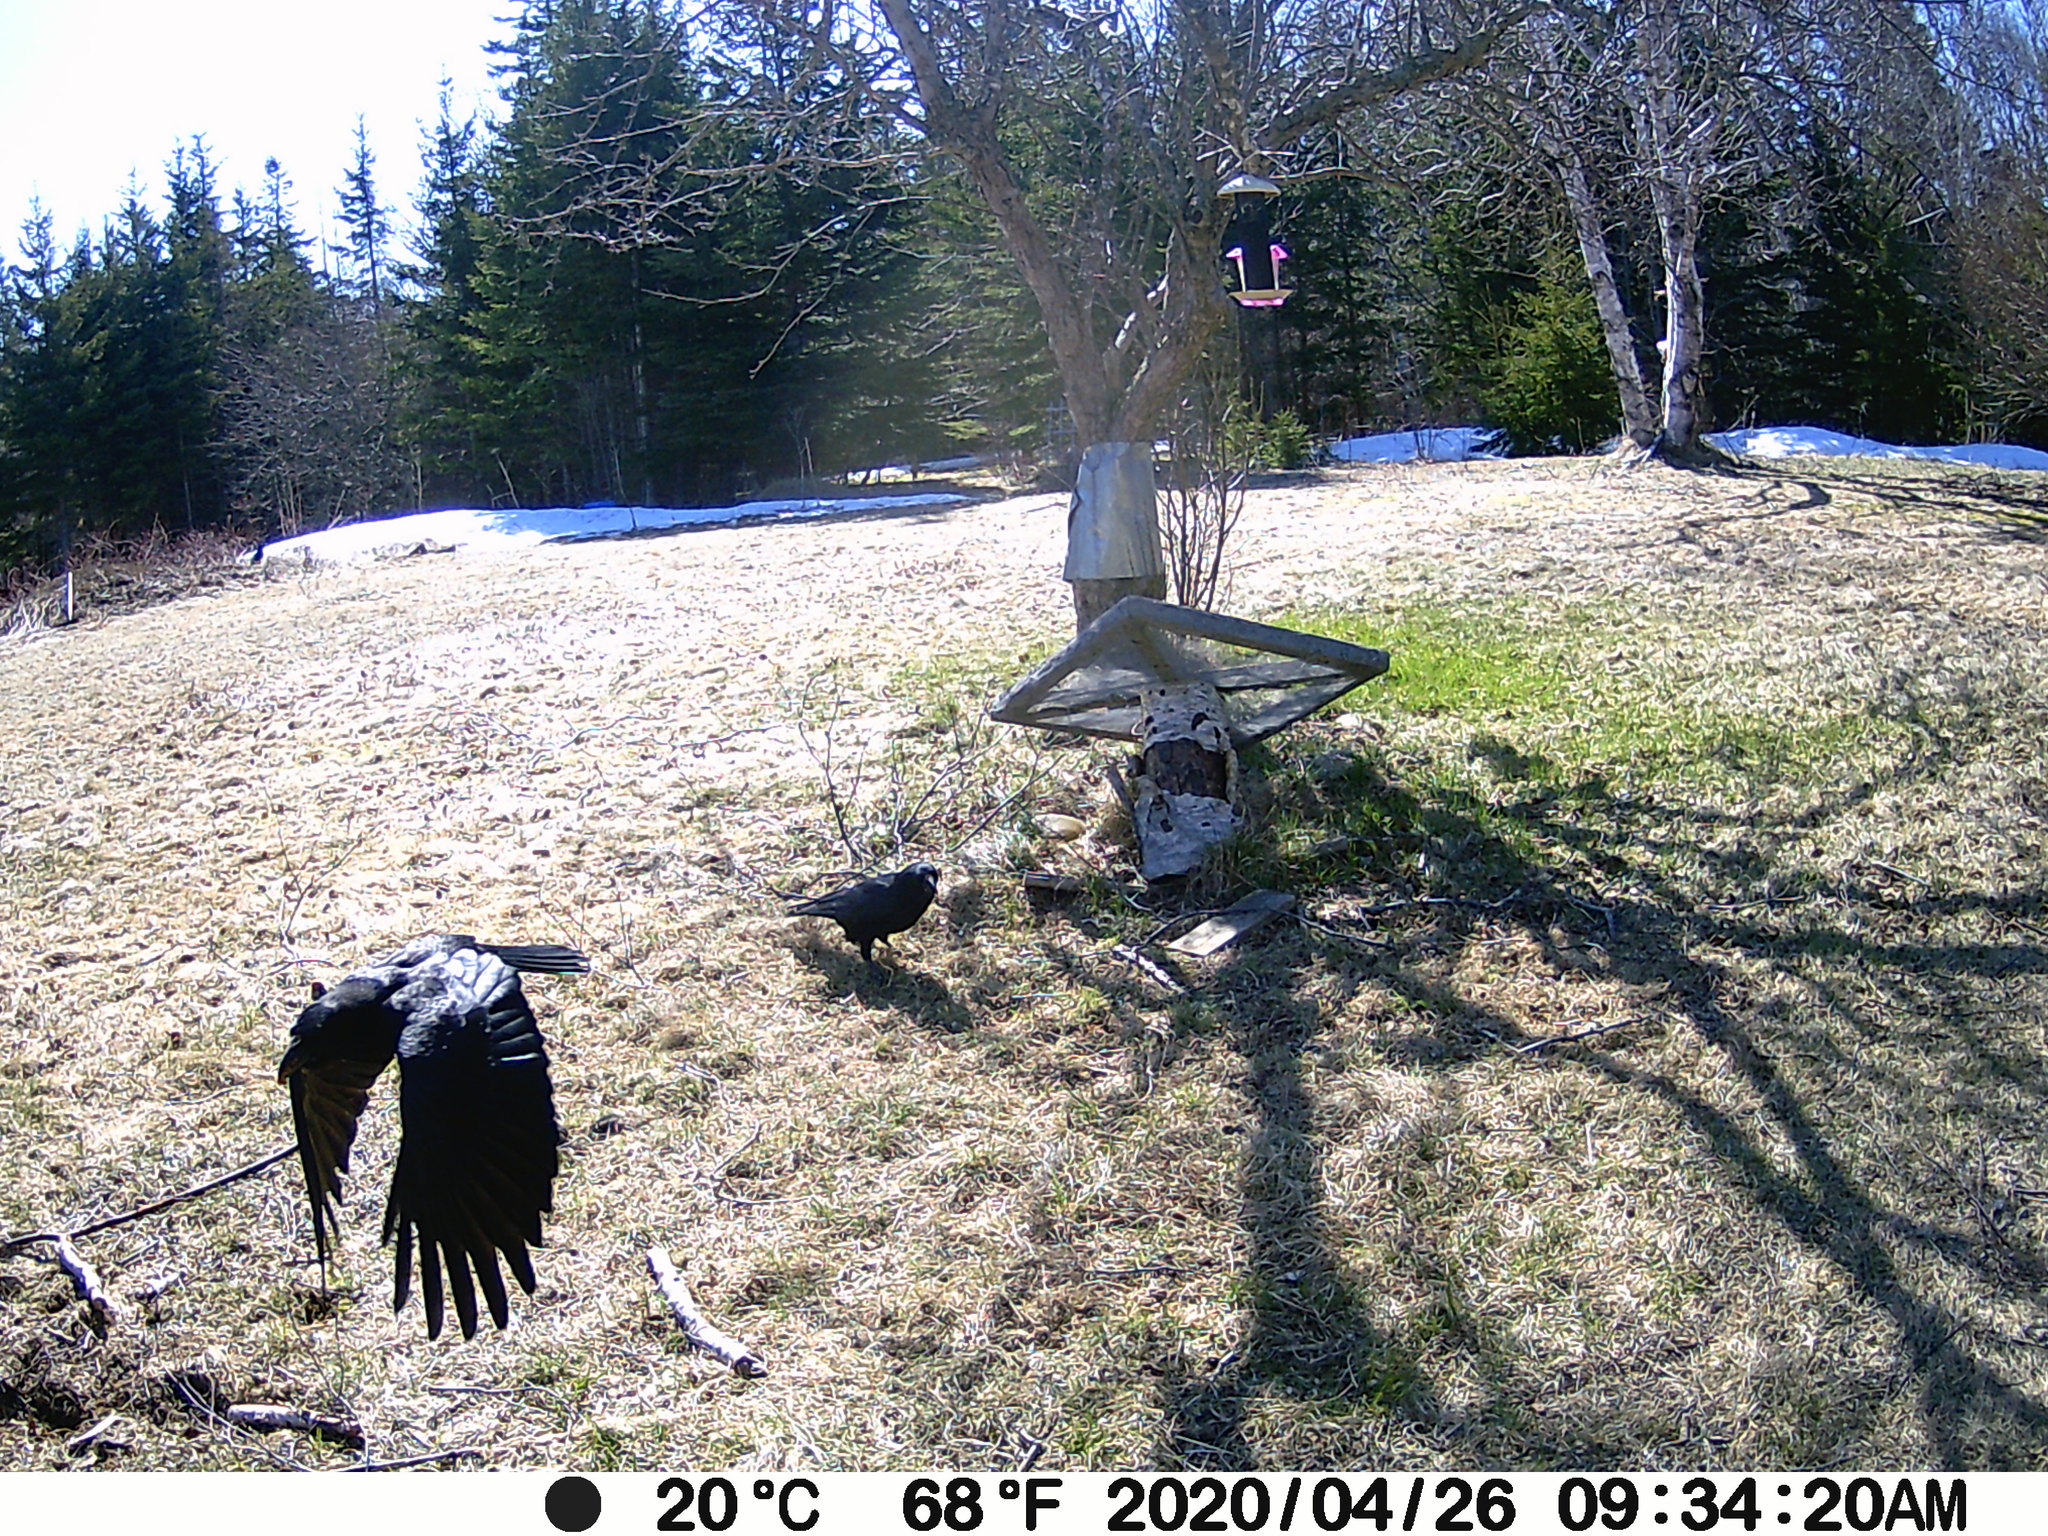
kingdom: Animalia
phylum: Chordata
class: Aves
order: Passeriformes
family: Corvidae
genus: Corvus
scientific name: Corvus brachyrhynchos
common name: American crow
